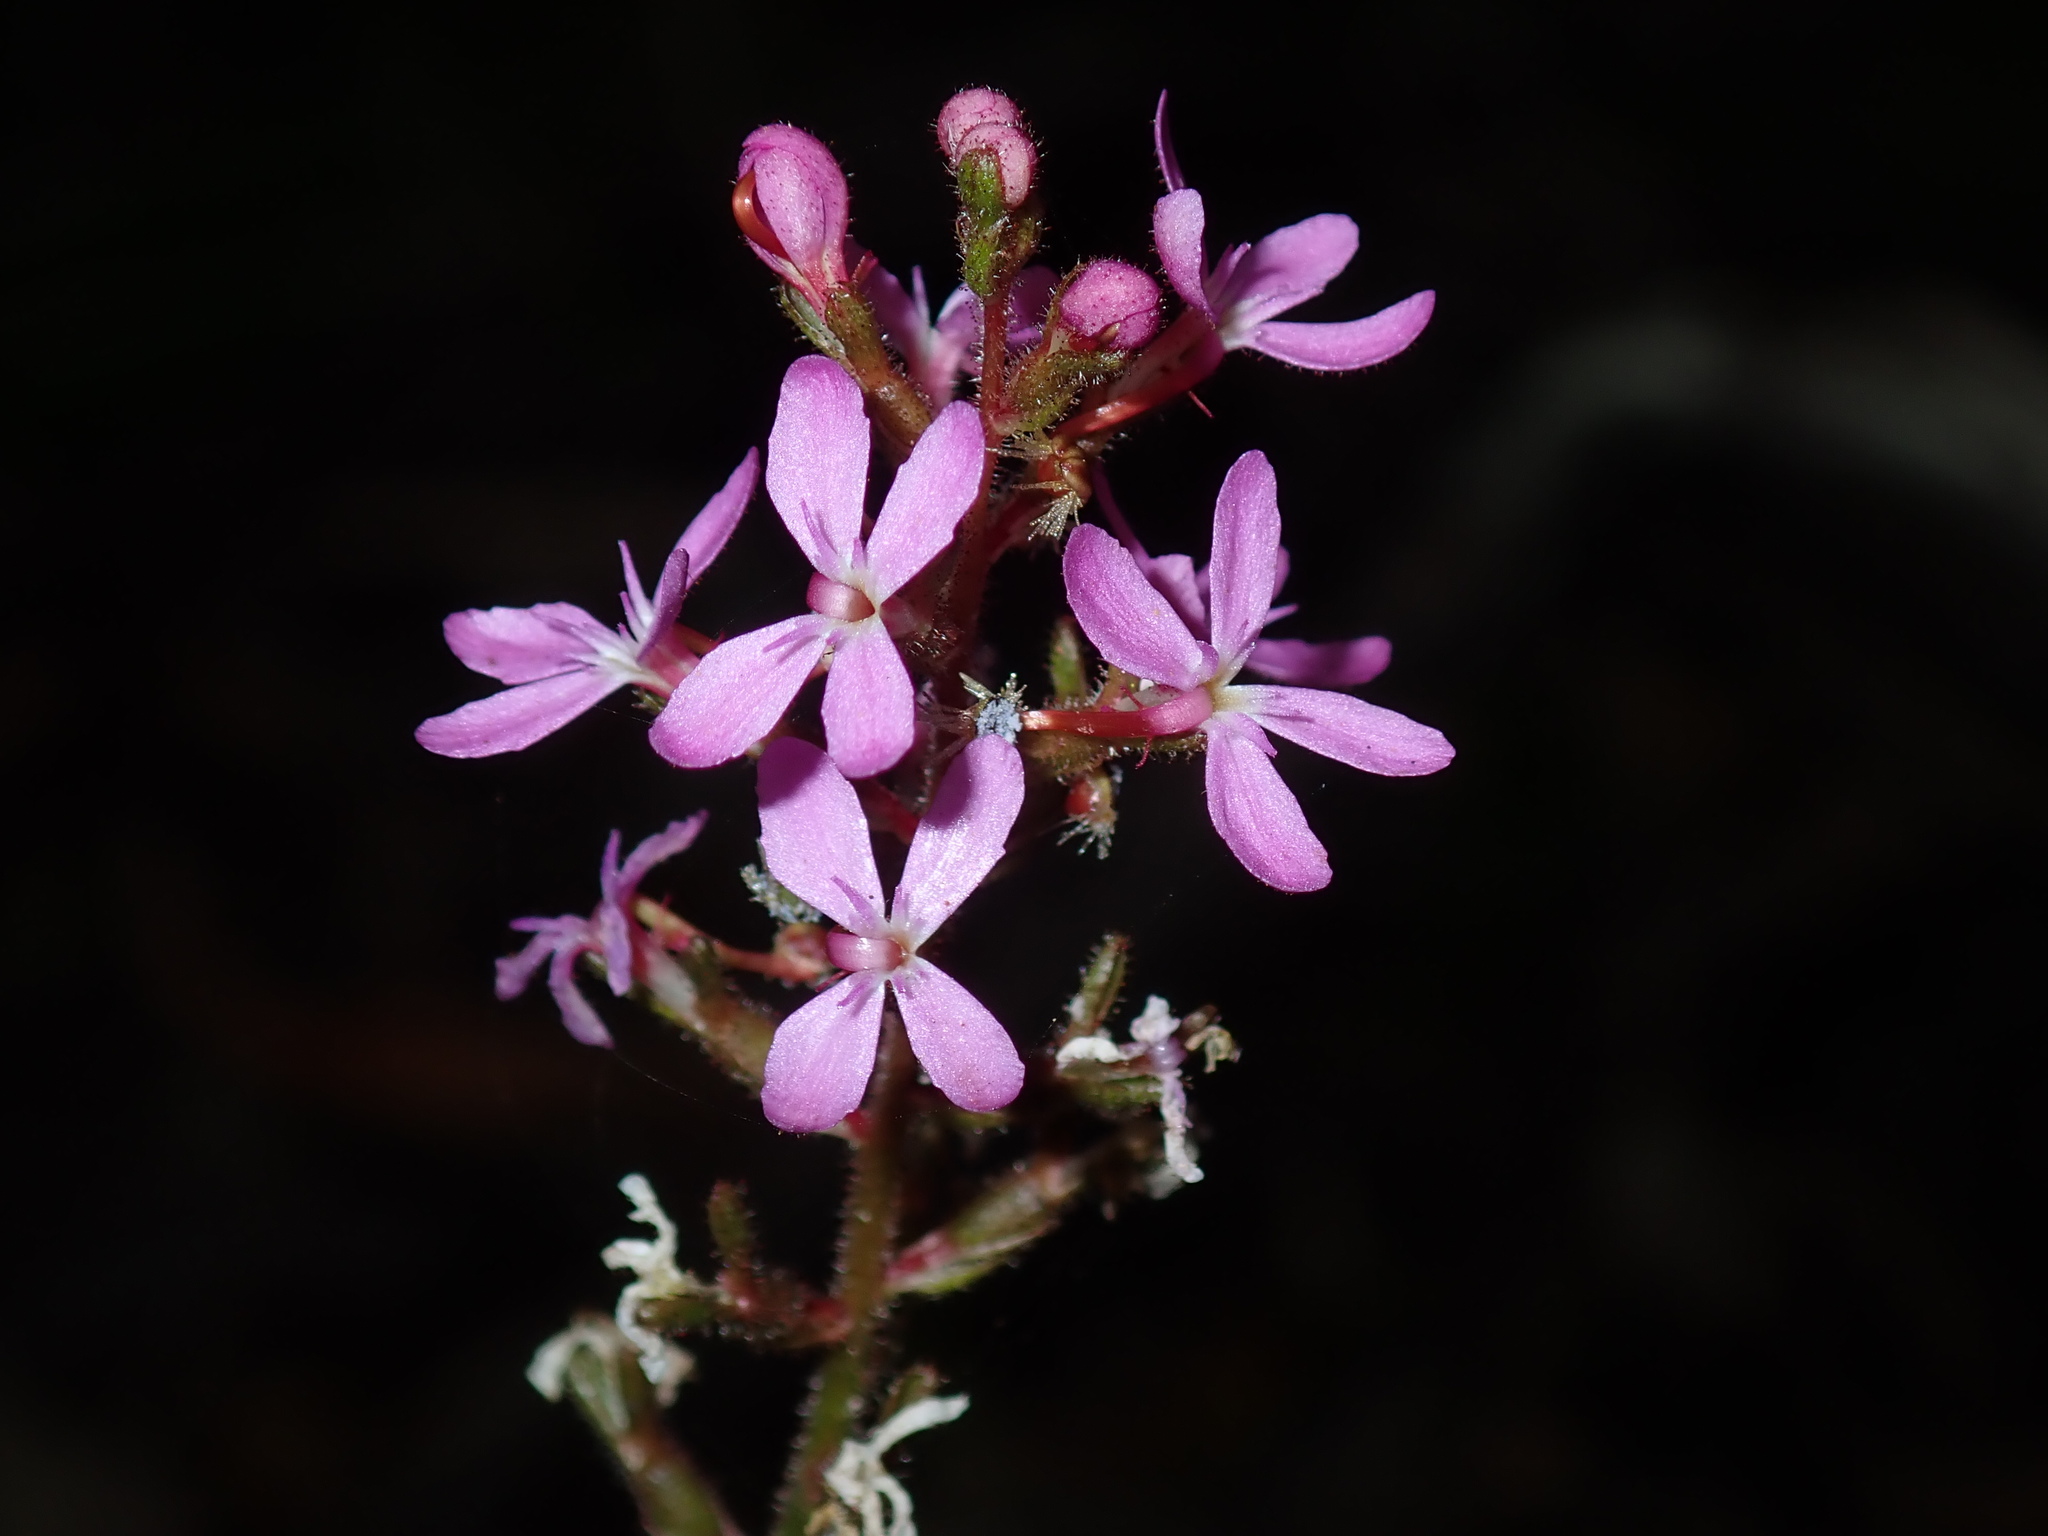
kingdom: Plantae
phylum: Tracheophyta
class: Magnoliopsida
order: Asterales
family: Stylidiaceae
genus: Stylidium
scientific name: Stylidium graminifolium
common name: Grass triggerplant
